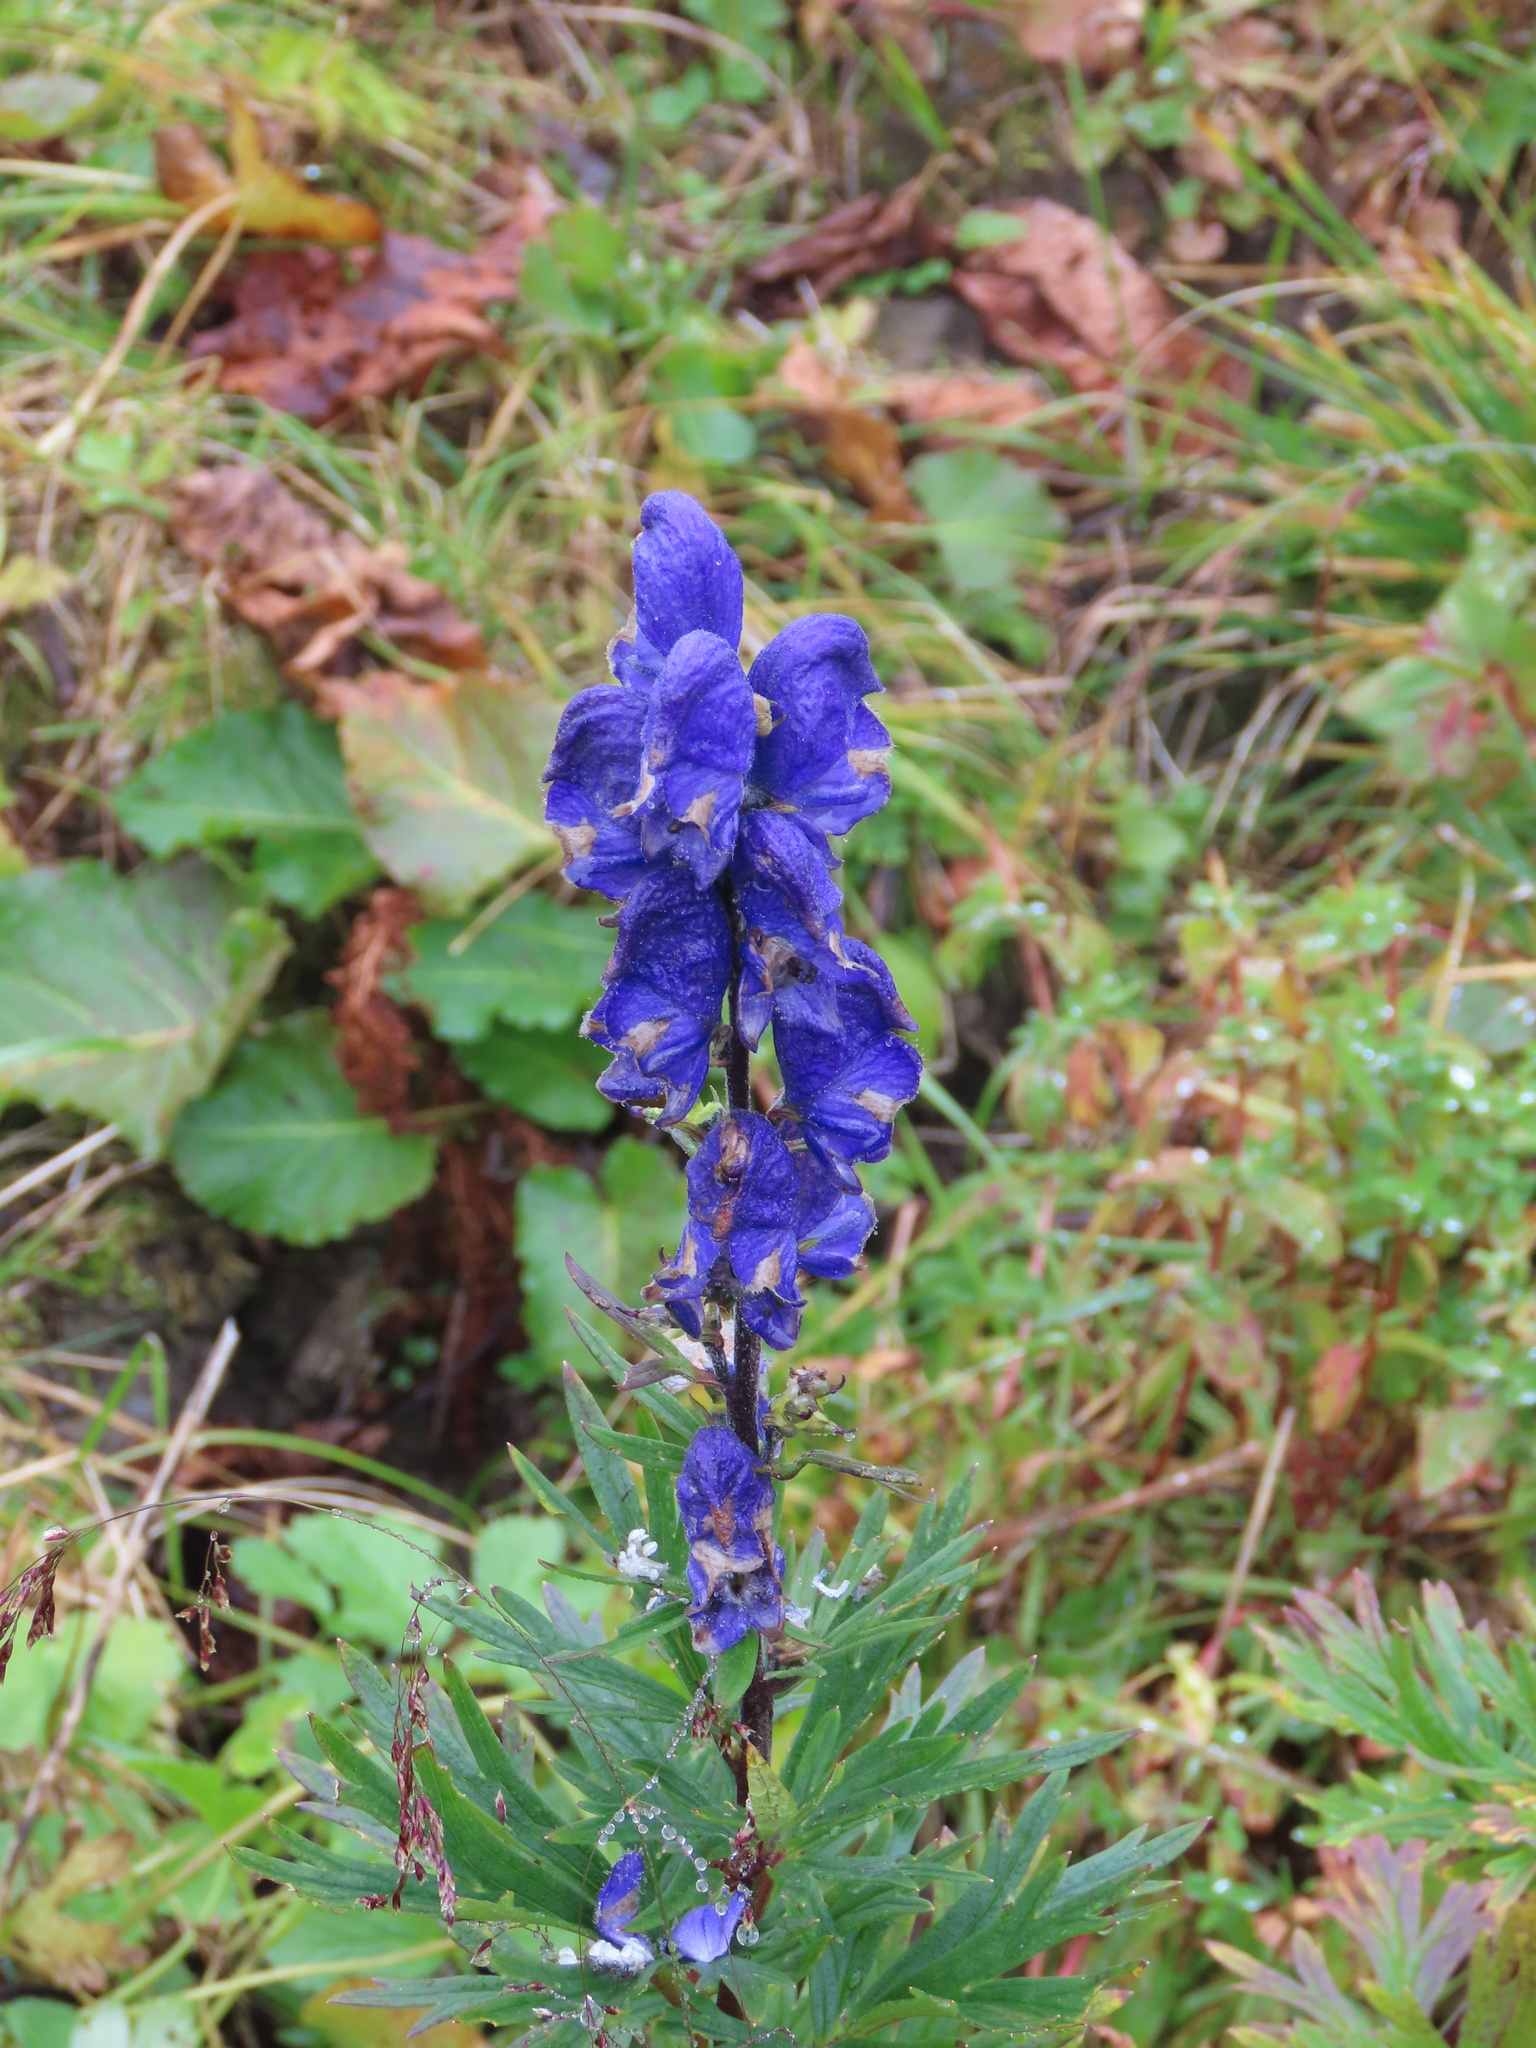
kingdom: Plantae
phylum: Tracheophyta
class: Magnoliopsida
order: Ranunculales
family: Ranunculaceae
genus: Aconitum
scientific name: Aconitum napellus
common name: Garden monkshood
